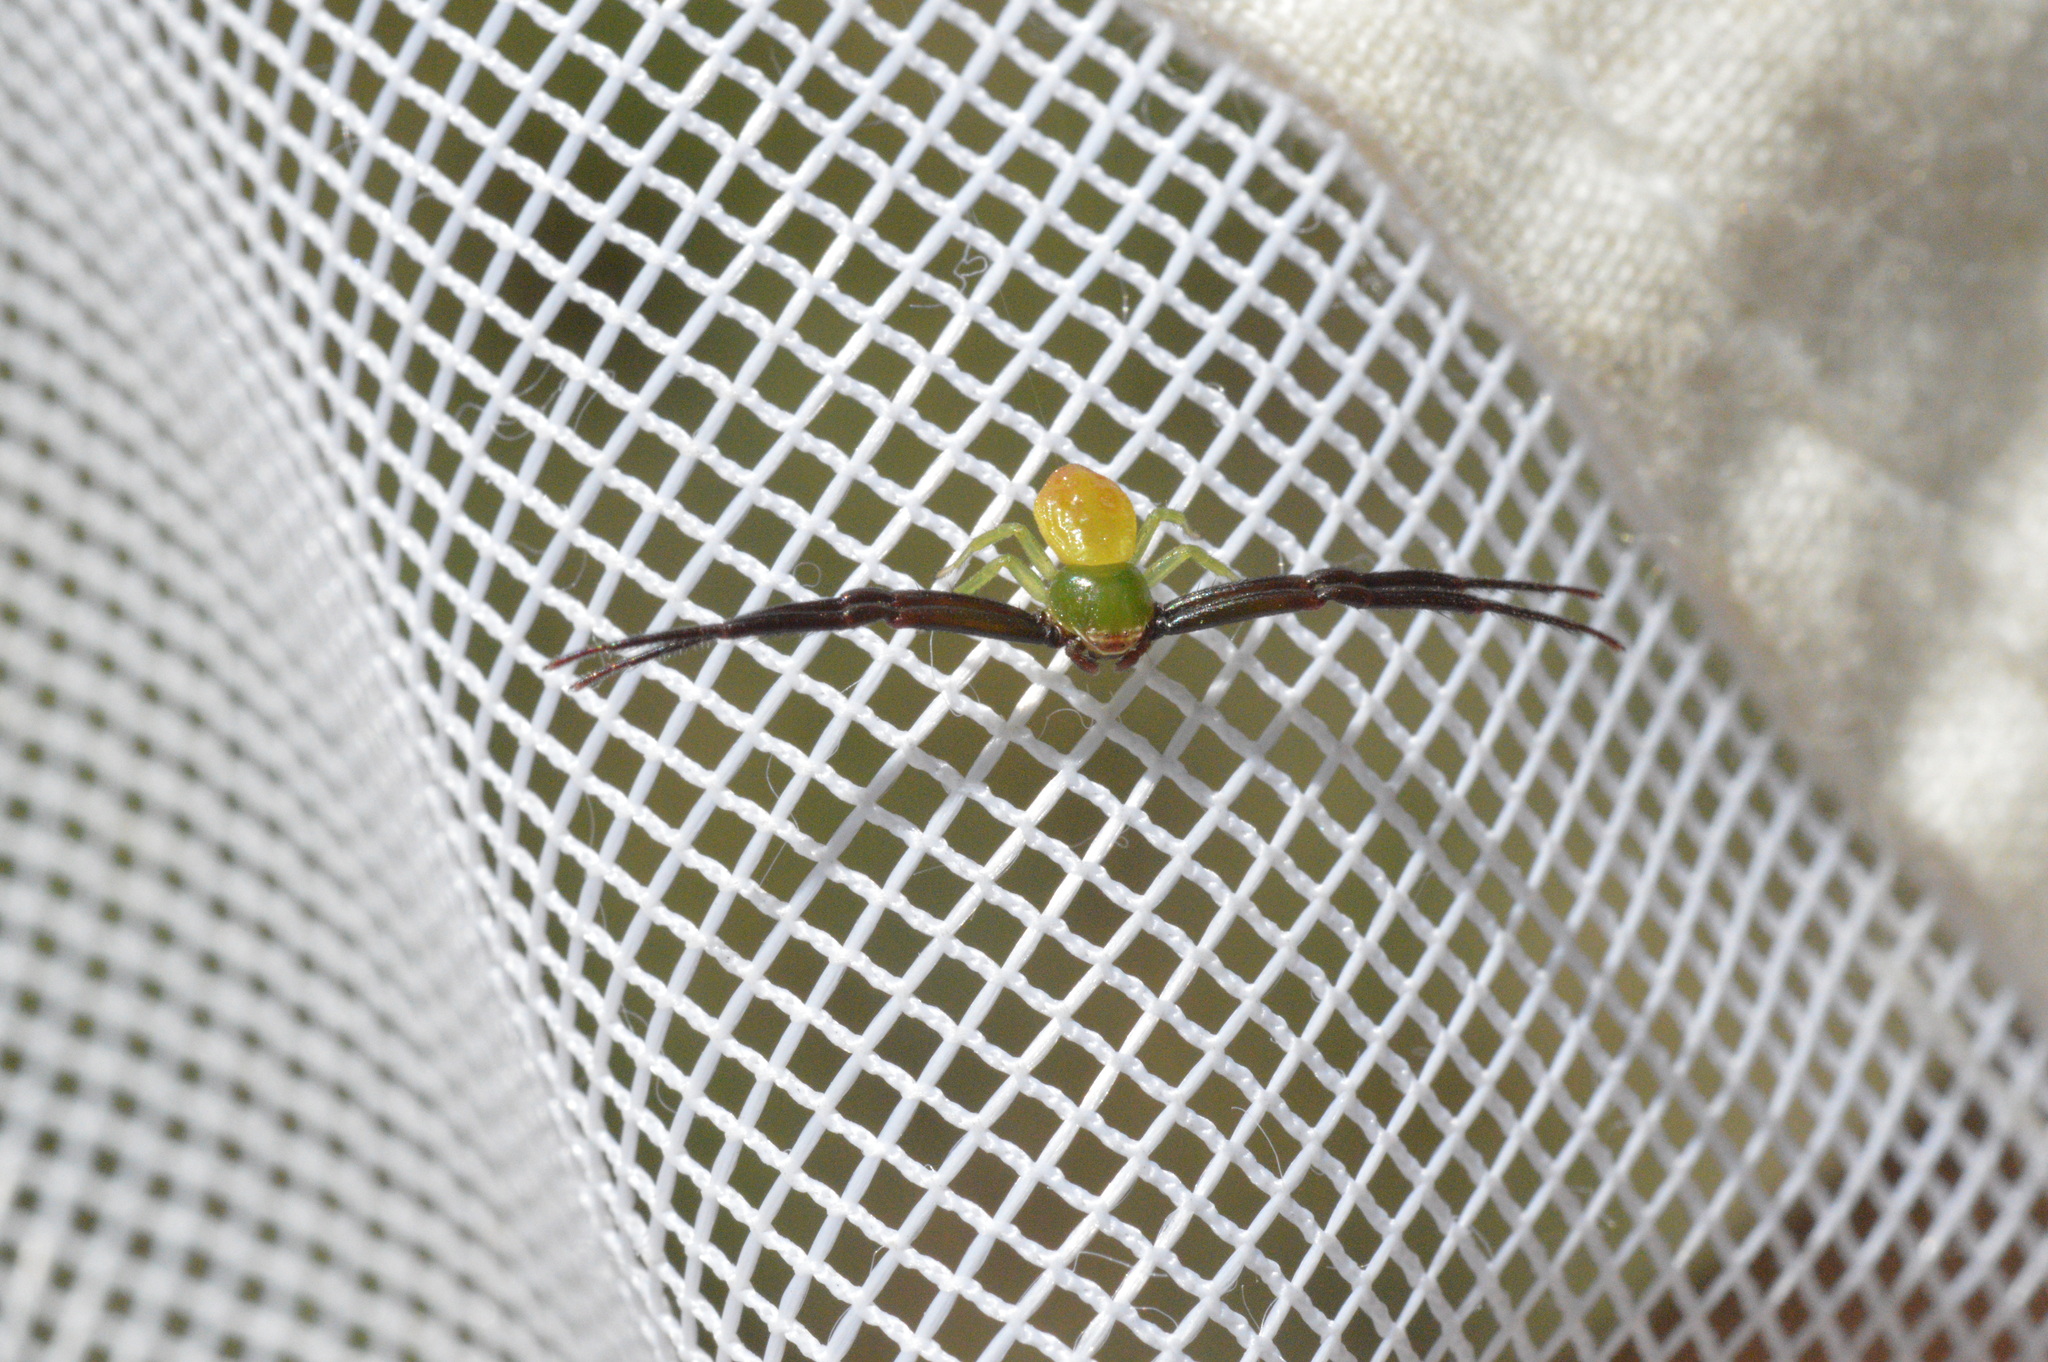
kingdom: Animalia
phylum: Arthropoda
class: Arachnida
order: Araneae
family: Thomisidae
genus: Misumenoides
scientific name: Misumenoides formosipes
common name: White-banded crab spider
